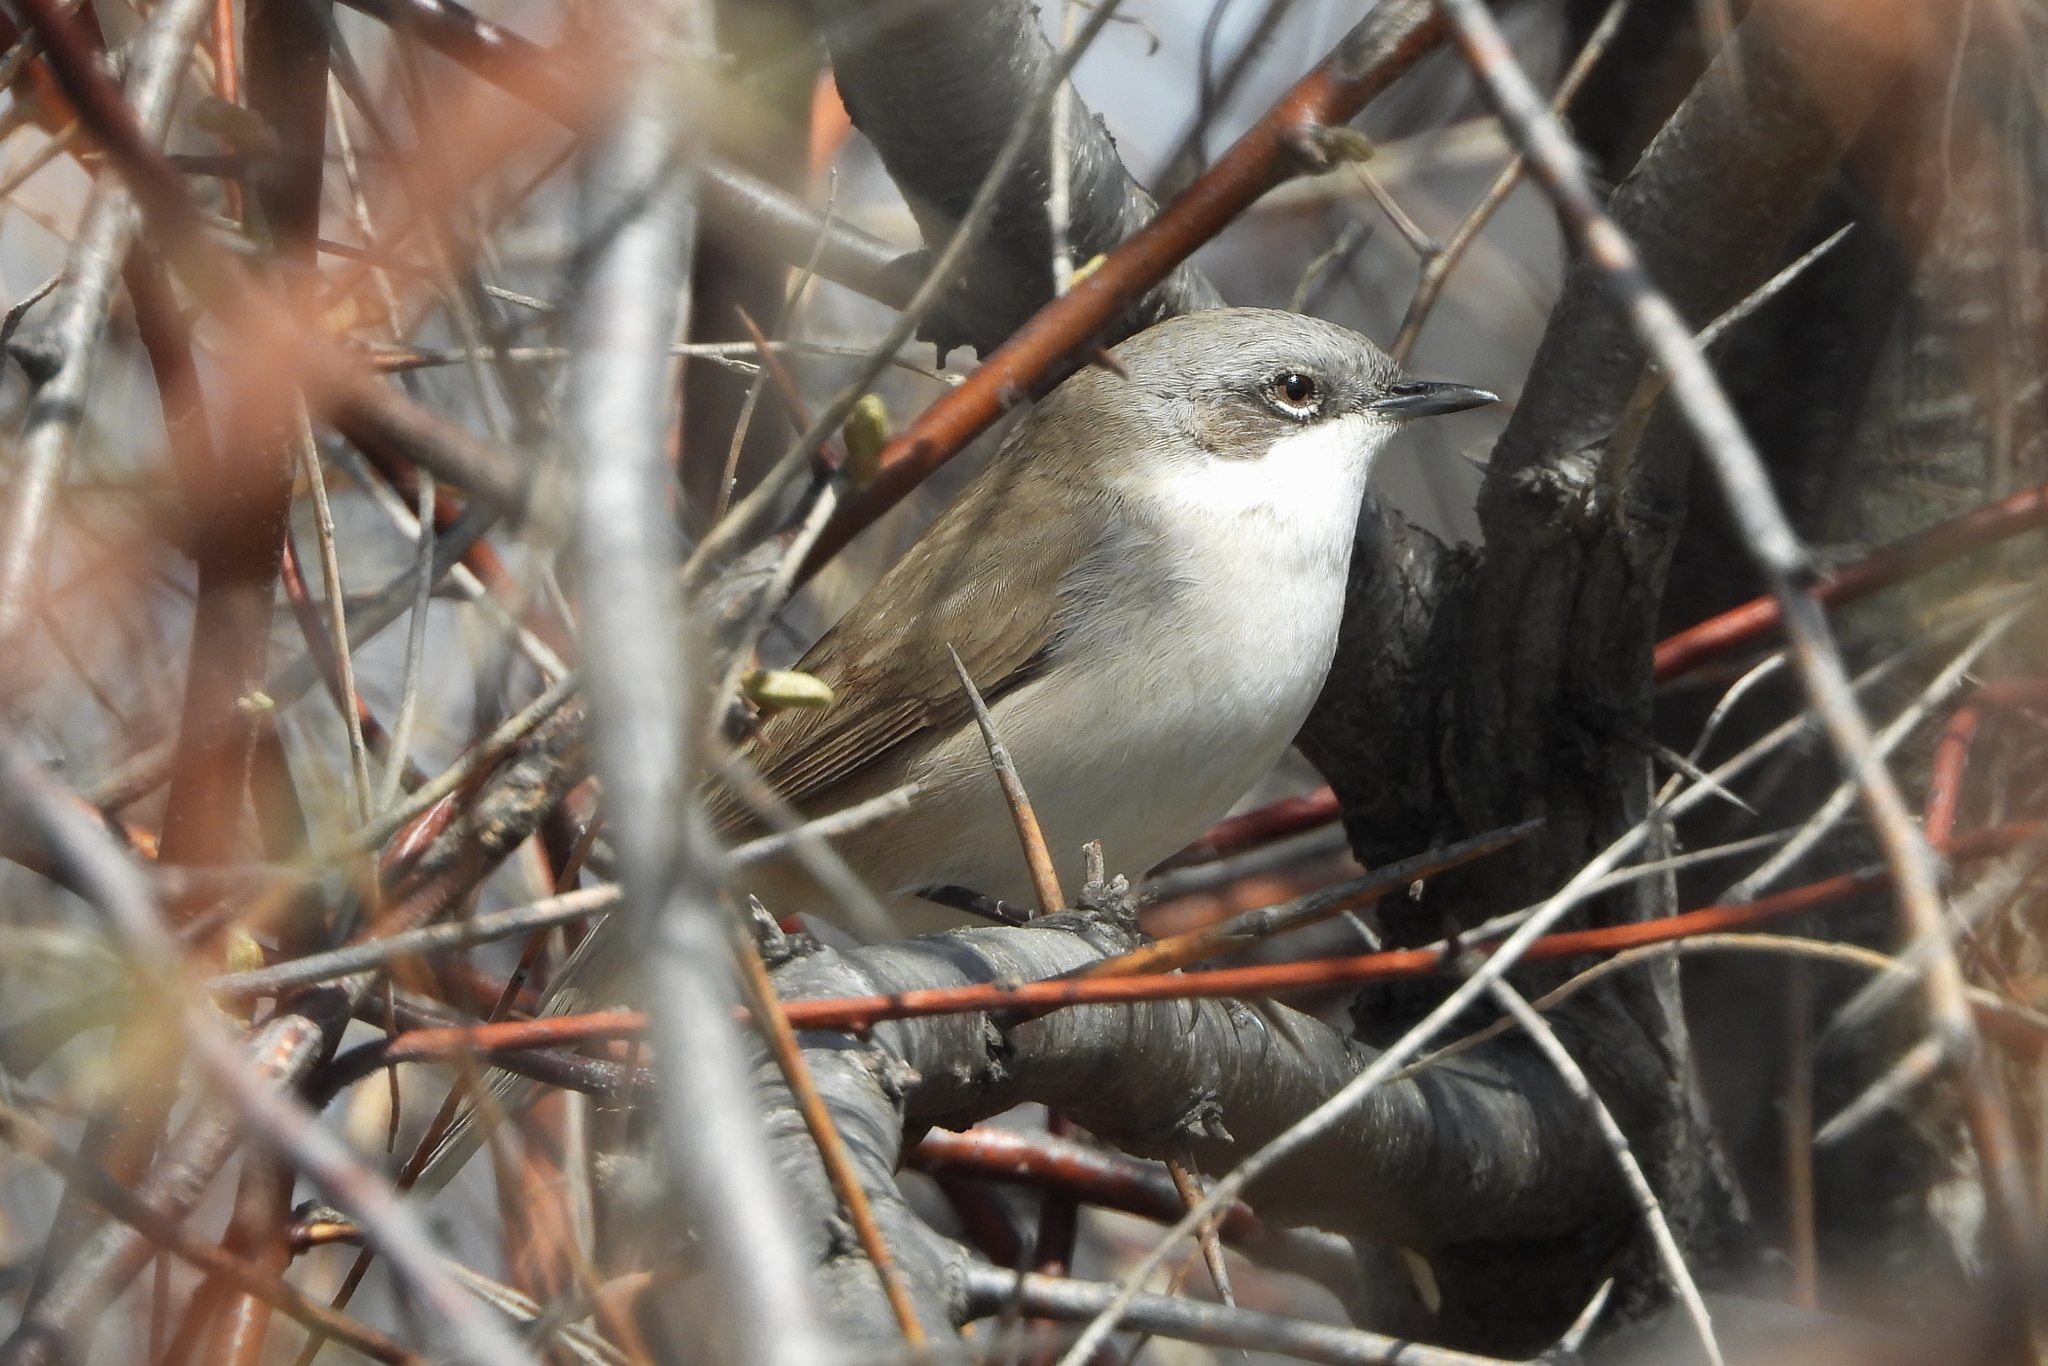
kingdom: Animalia
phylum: Chordata
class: Aves
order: Passeriformes
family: Sylviidae
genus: Sylvia
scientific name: Sylvia curruca
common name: Lesser whitethroat
